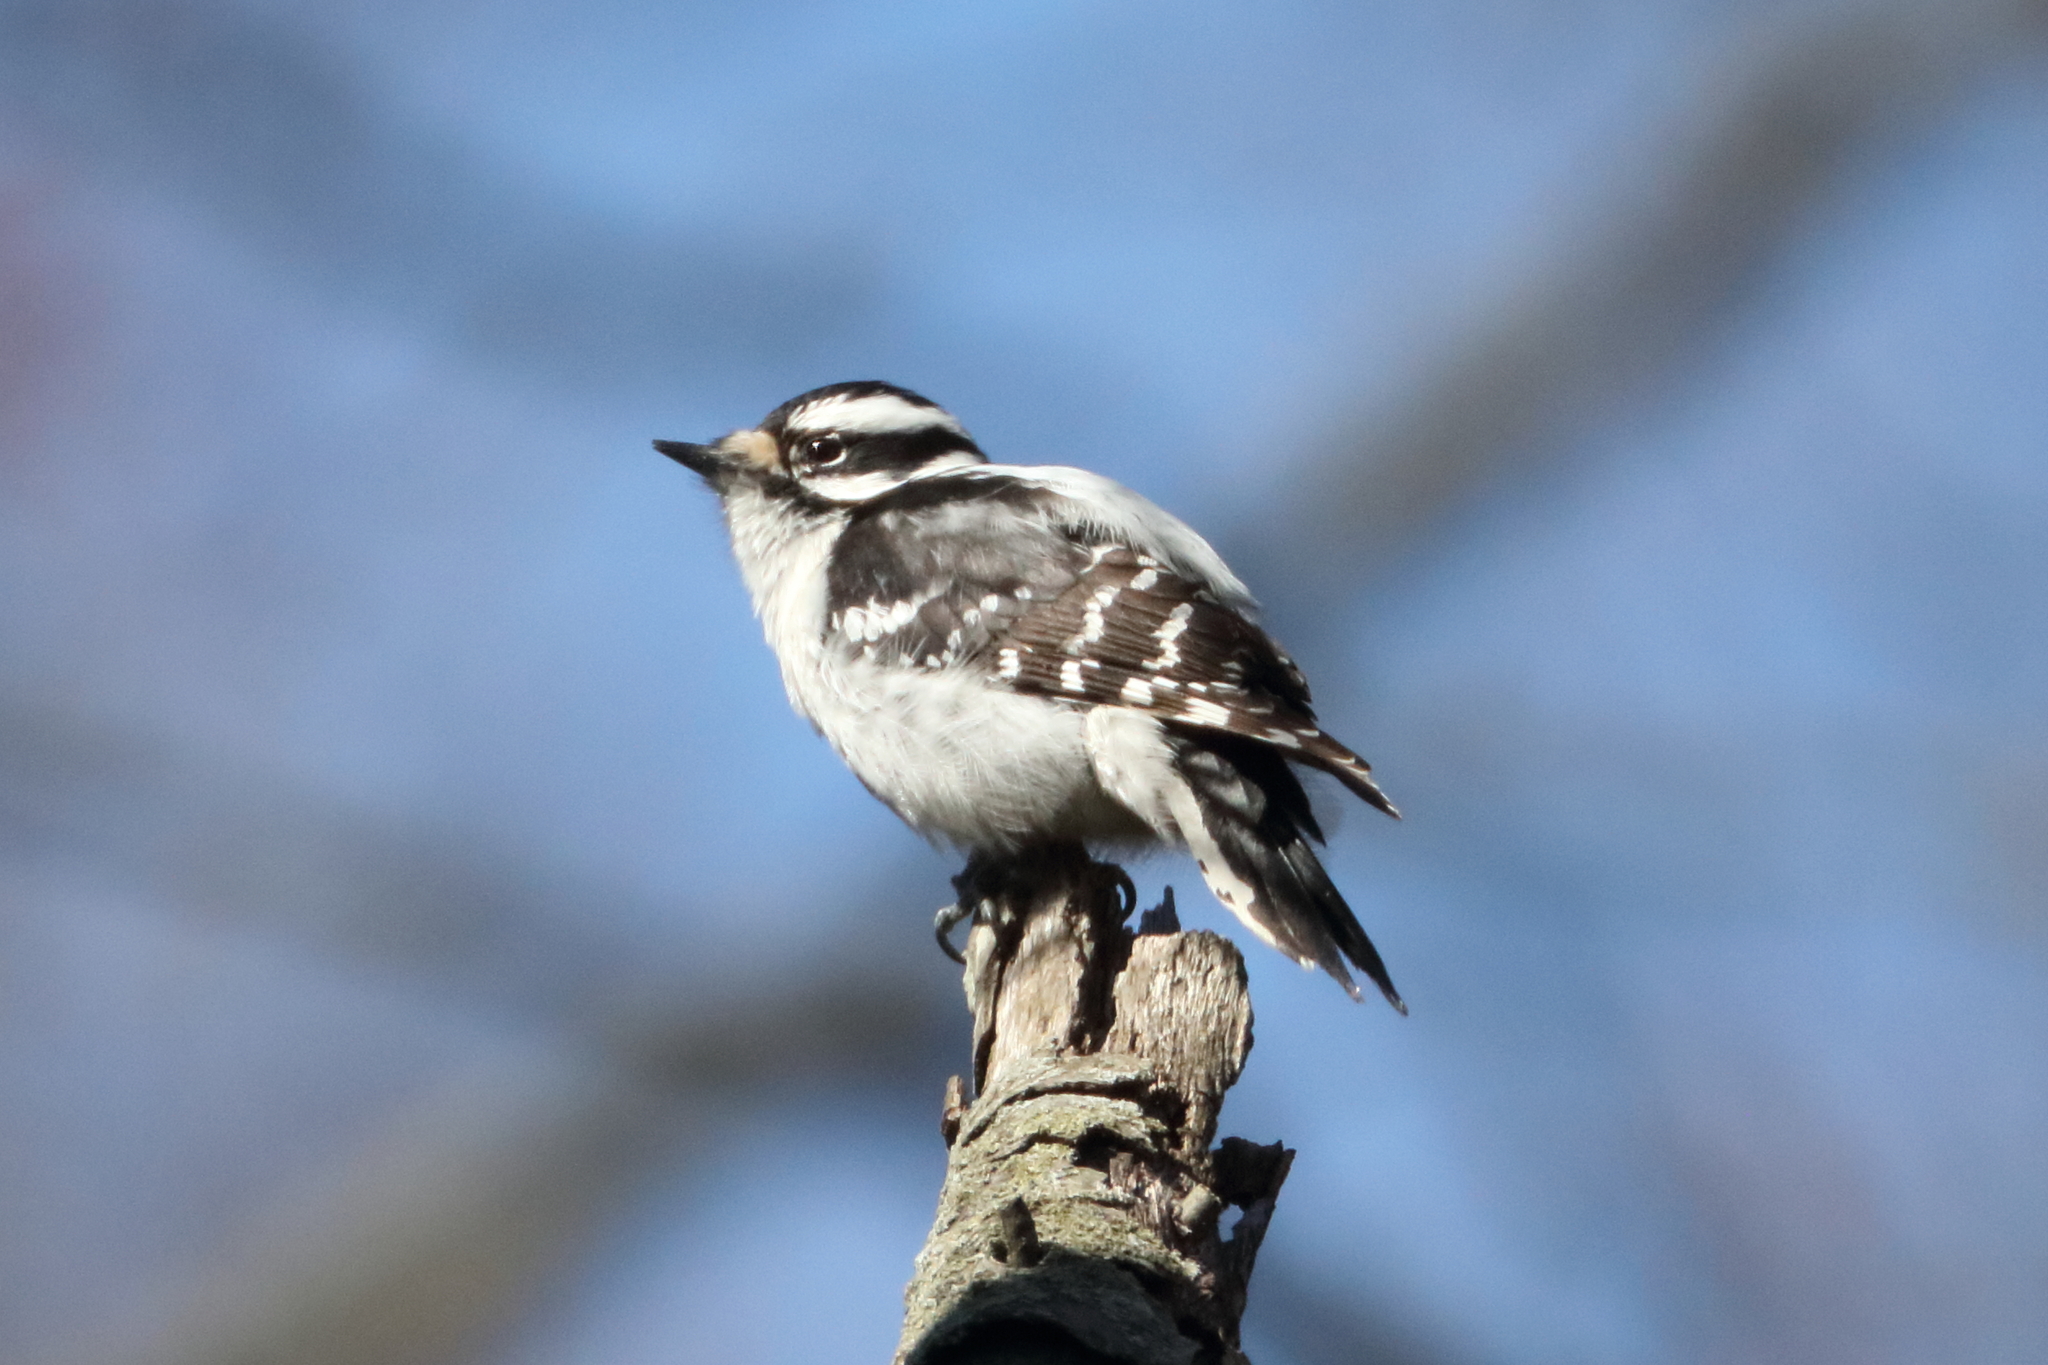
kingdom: Animalia
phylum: Chordata
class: Aves
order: Piciformes
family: Picidae
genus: Dryobates
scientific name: Dryobates pubescens
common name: Downy woodpecker
